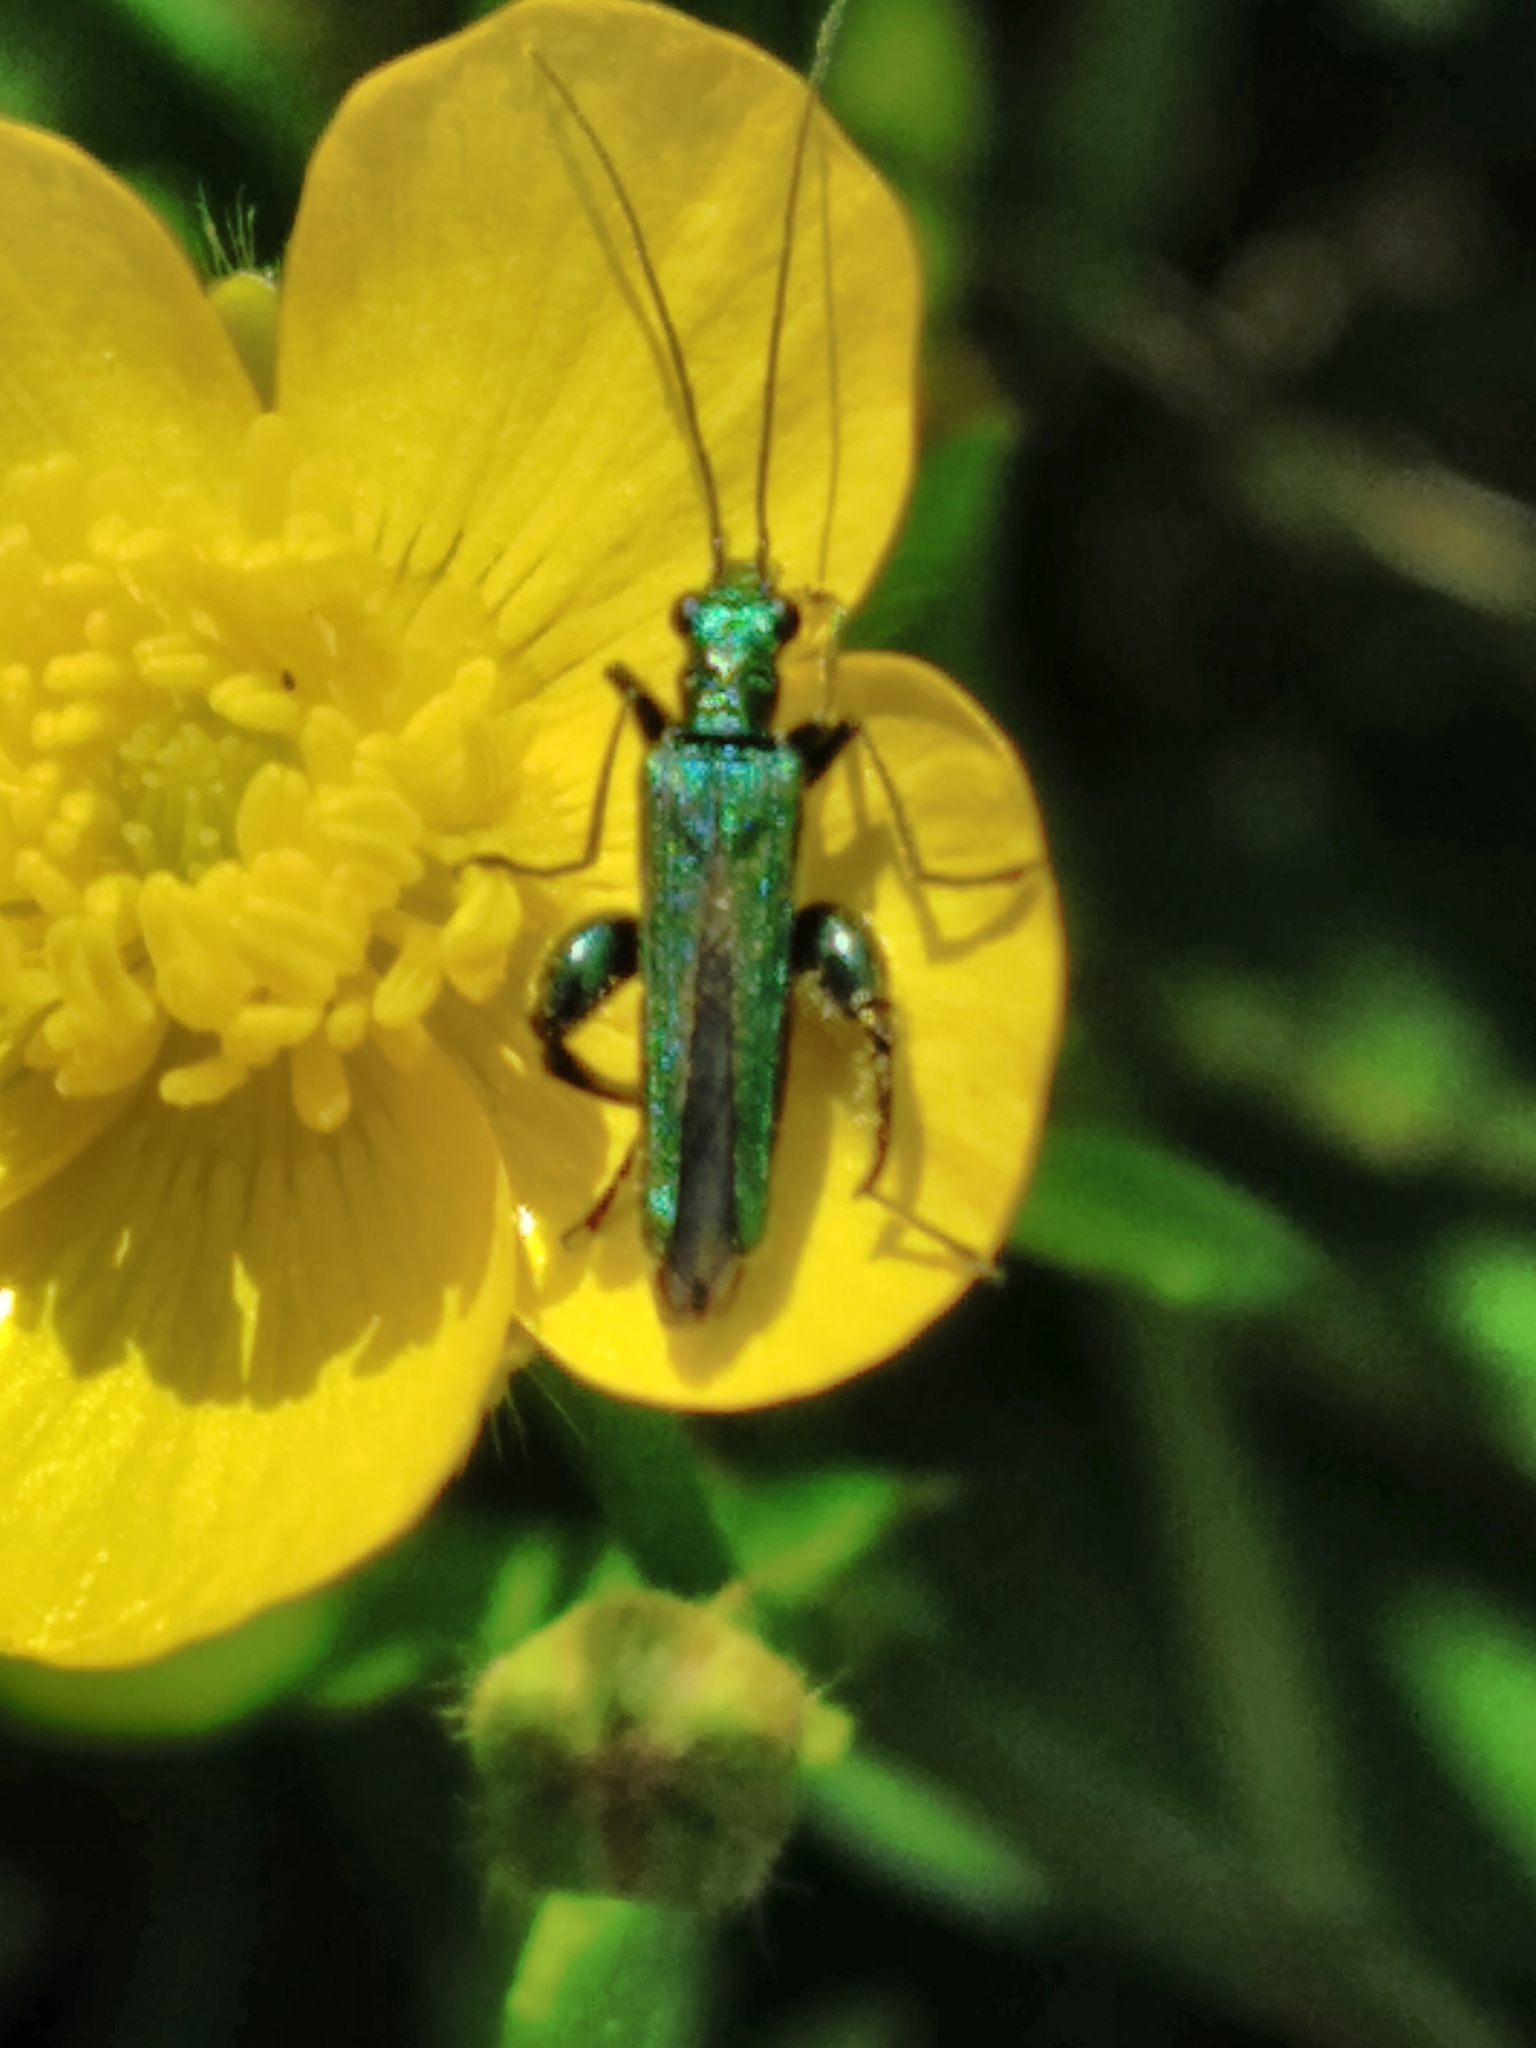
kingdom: Animalia
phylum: Arthropoda
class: Insecta
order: Coleoptera
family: Oedemeridae
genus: Oedemera
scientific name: Oedemera nobilis
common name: Swollen-thighed beetle
